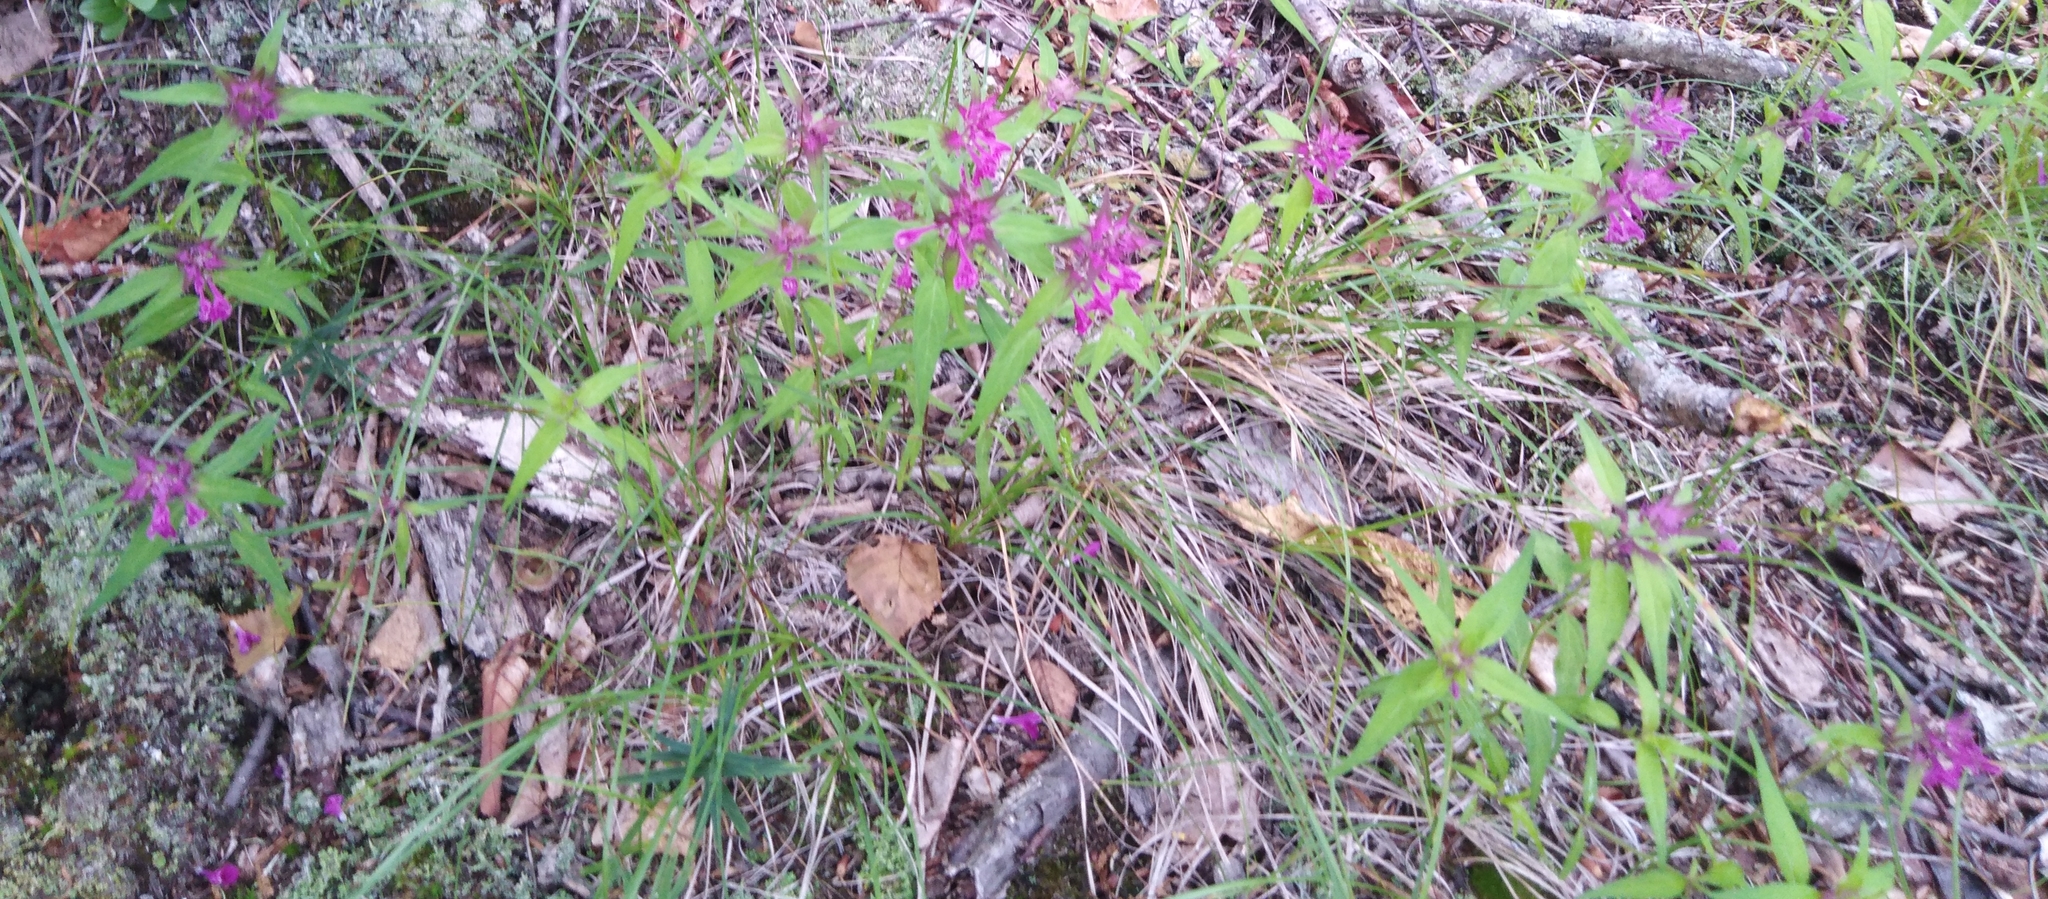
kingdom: Plantae
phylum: Tracheophyta
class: Magnoliopsida
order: Lamiales
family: Orobanchaceae
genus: Melampyrum
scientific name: Melampyrum setaceum
